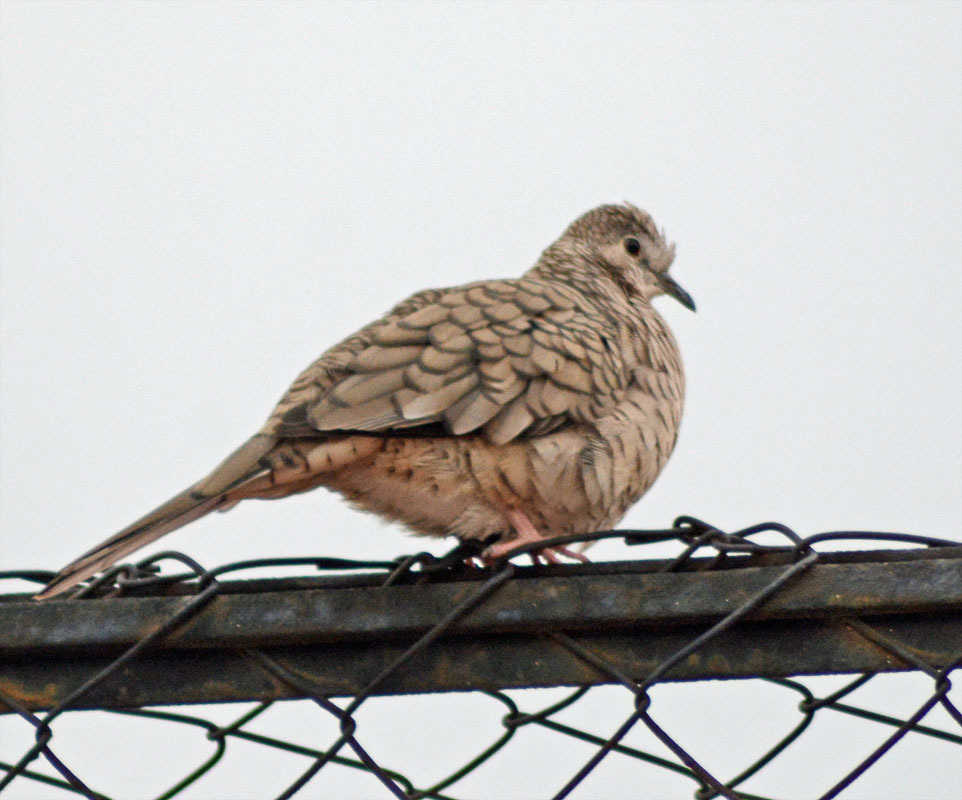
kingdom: Animalia
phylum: Chordata
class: Aves
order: Columbiformes
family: Columbidae
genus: Columbina
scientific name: Columbina inca
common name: Inca dove
